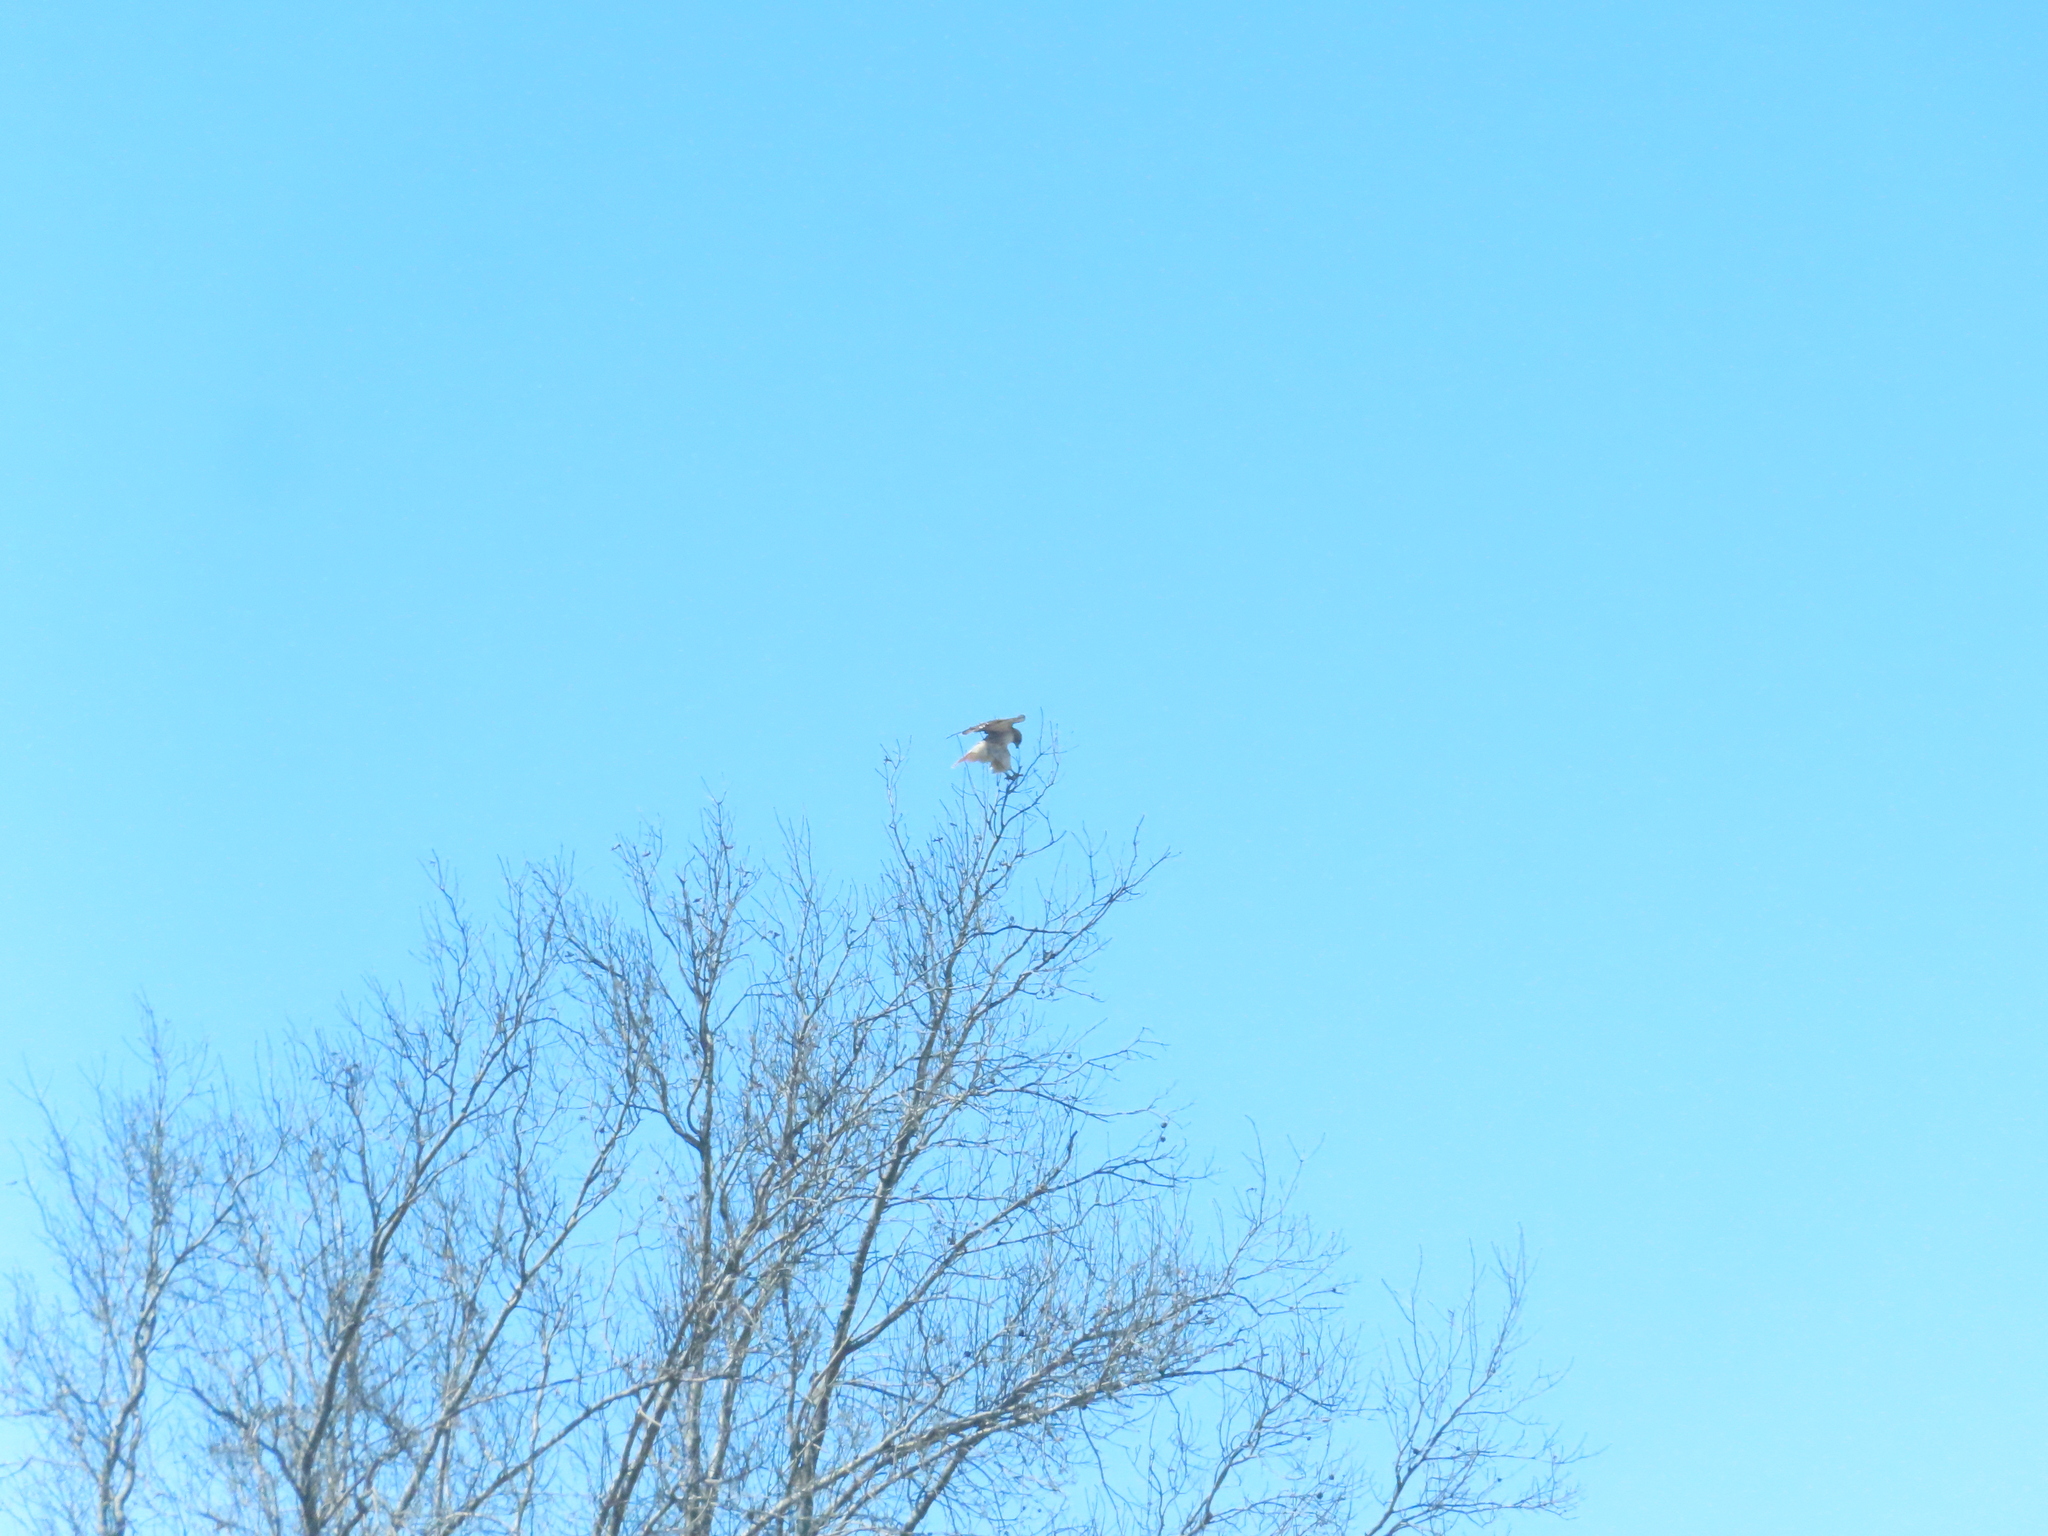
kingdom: Animalia
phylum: Chordata
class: Aves
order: Accipitriformes
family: Accipitridae
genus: Buteo
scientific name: Buteo jamaicensis
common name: Red-tailed hawk
